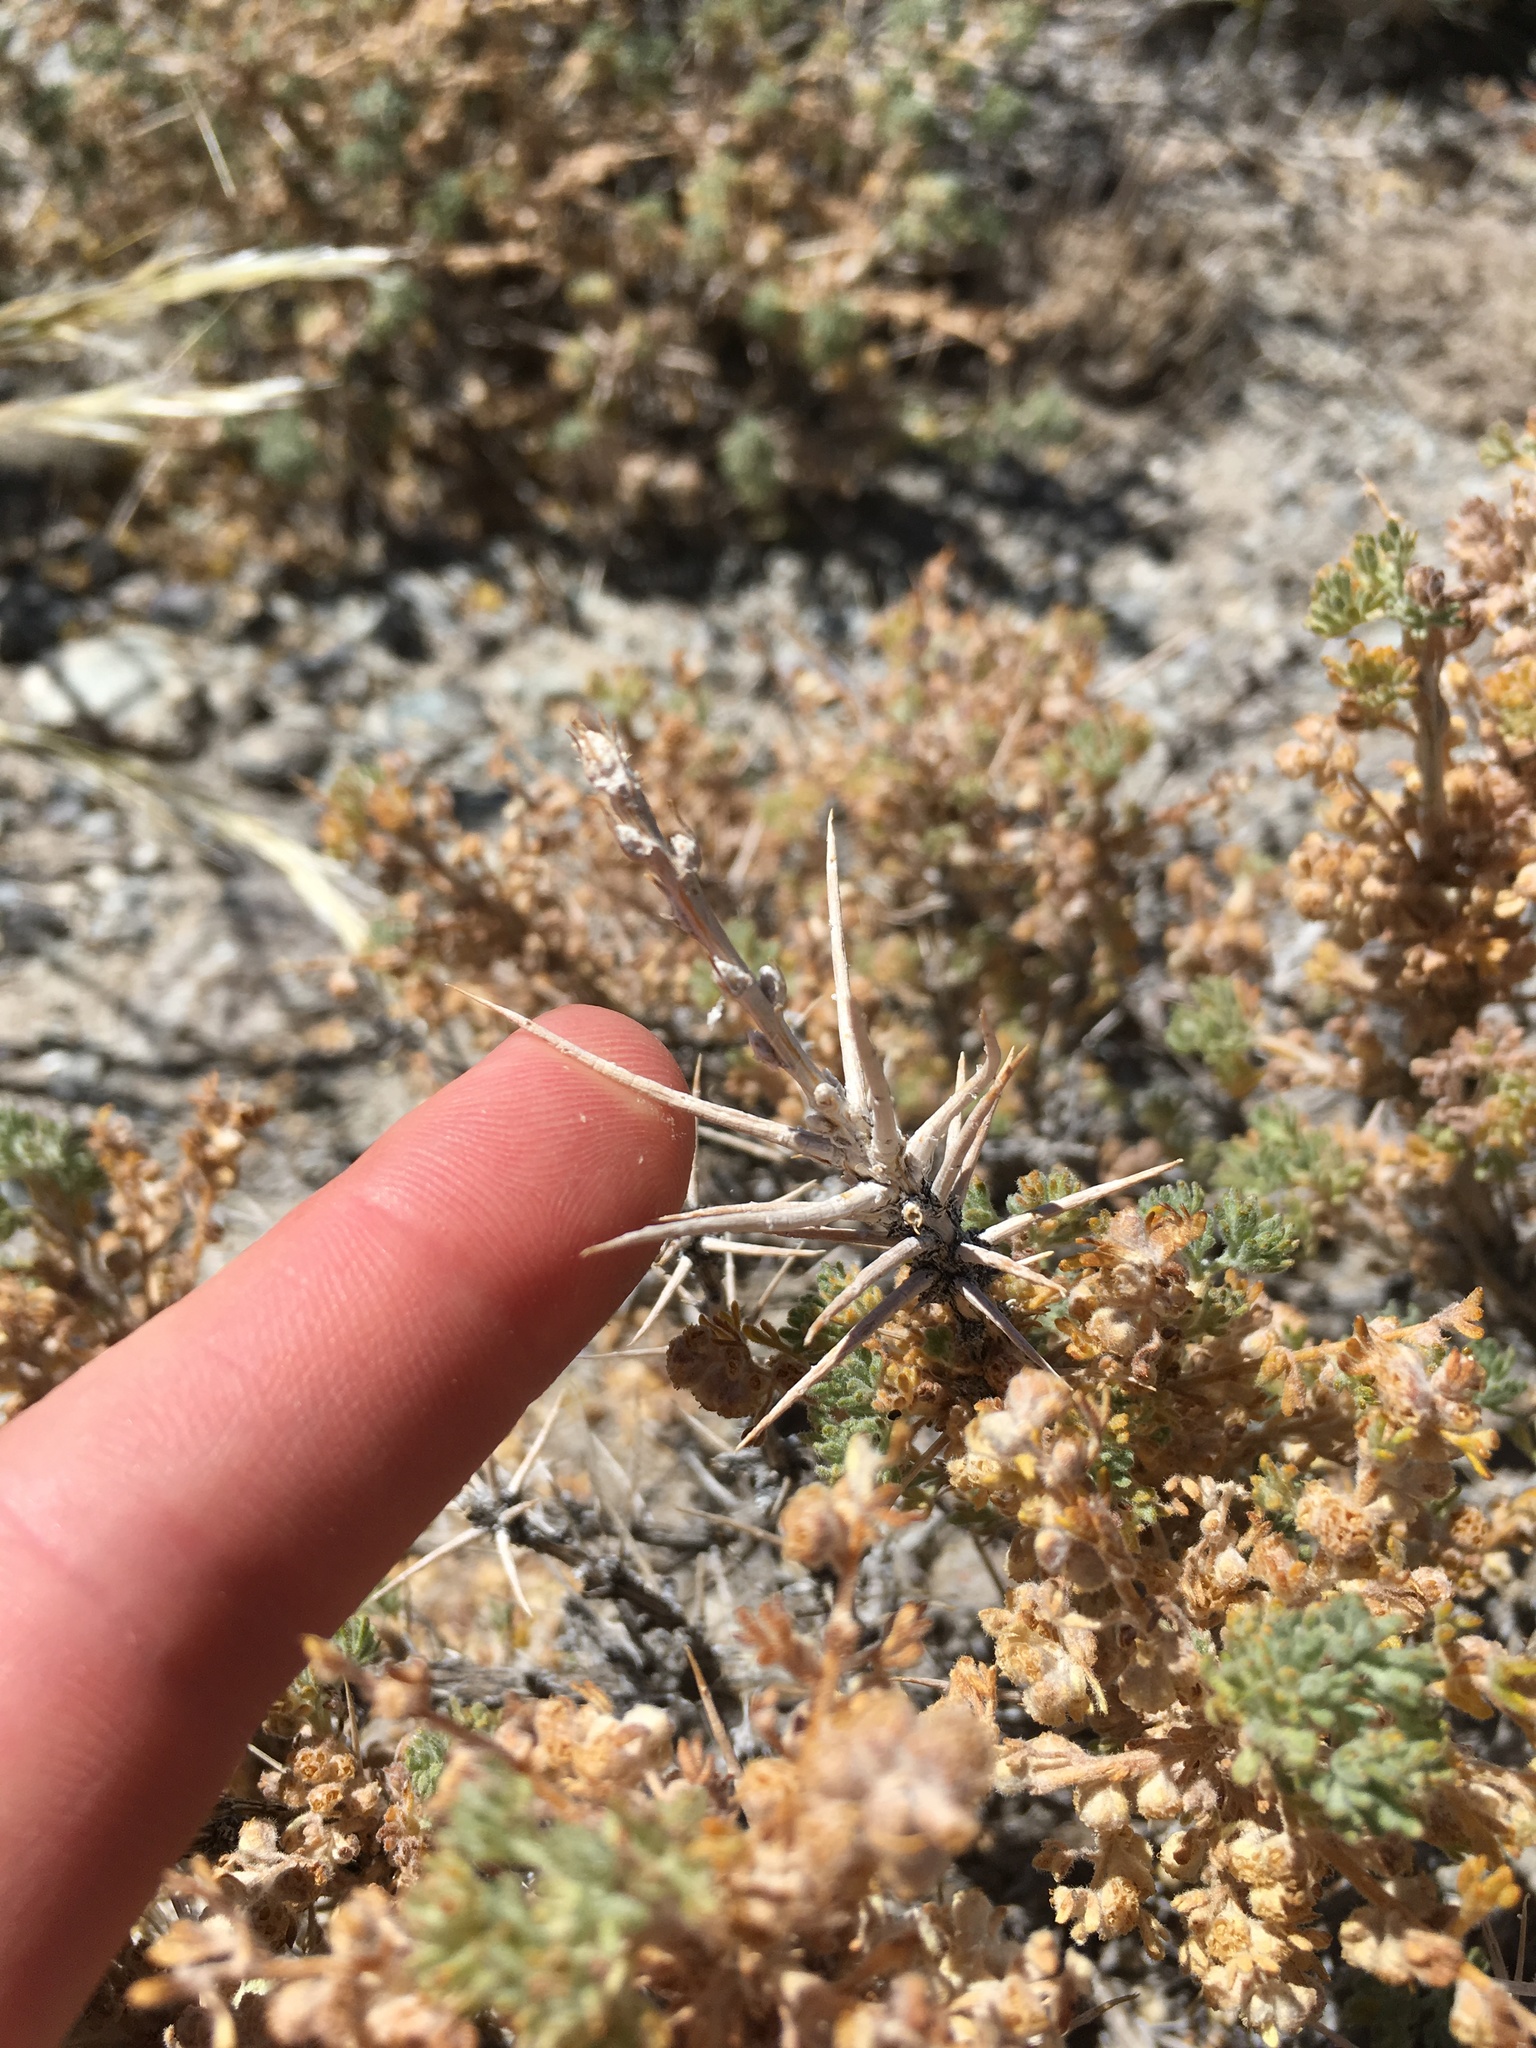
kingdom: Plantae
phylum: Tracheophyta
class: Magnoliopsida
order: Asterales
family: Asteraceae
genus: Artemisia
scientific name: Artemisia spinescens
